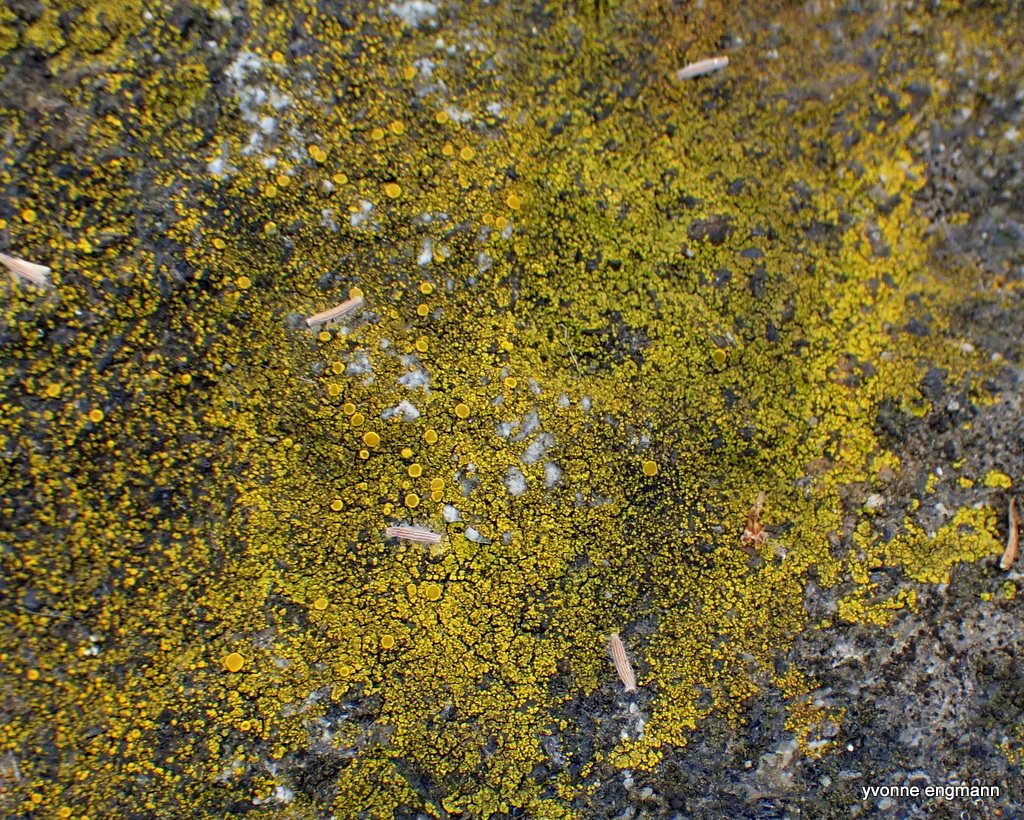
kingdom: Fungi
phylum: Ascomycota
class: Candelariomycetes
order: Candelariales
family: Candelariaceae
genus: Candelariella
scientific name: Candelariella vitellina
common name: Common goldspeck
